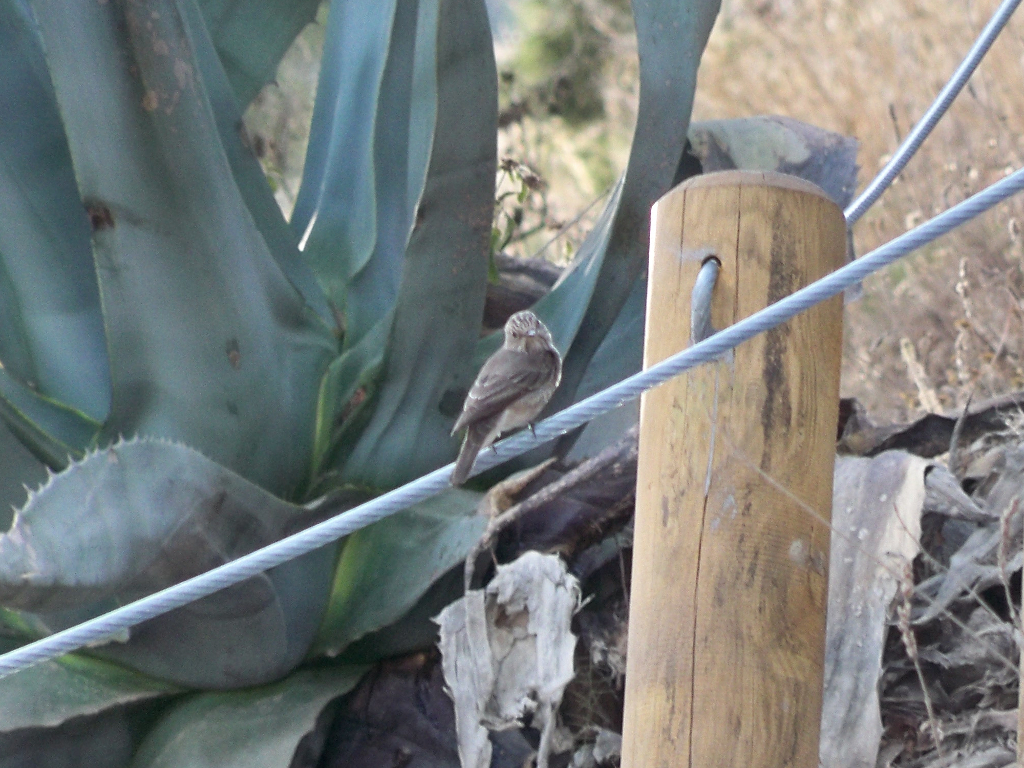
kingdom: Animalia
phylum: Chordata
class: Aves
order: Passeriformes
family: Muscicapidae
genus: Muscicapa
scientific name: Muscicapa striata
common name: Spotted flycatcher
